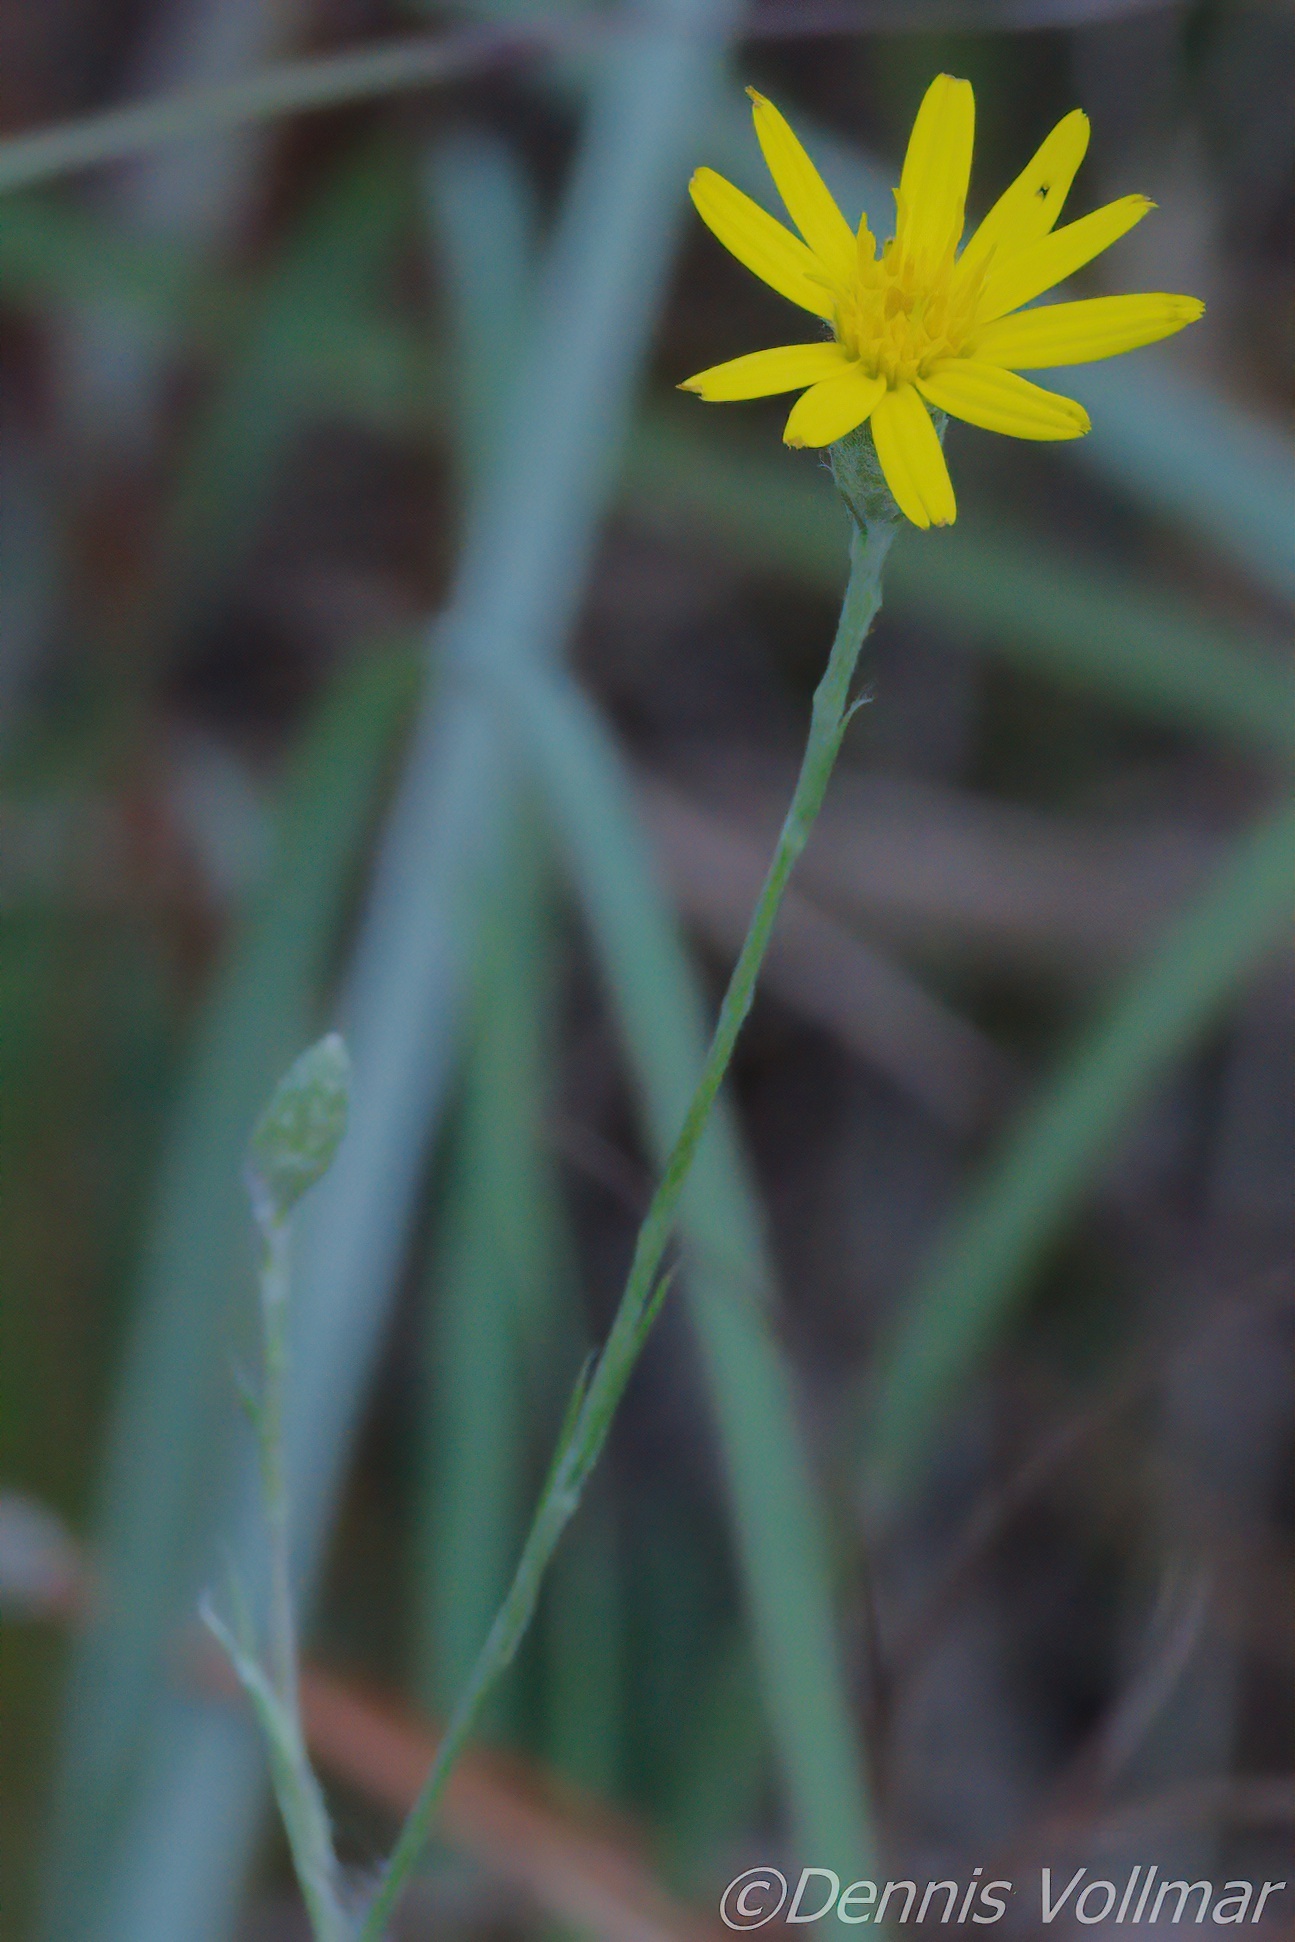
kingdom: Plantae
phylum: Tracheophyta
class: Magnoliopsida
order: Asterales
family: Asteraceae
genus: Pityopsis
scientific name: Pityopsis tracyi
